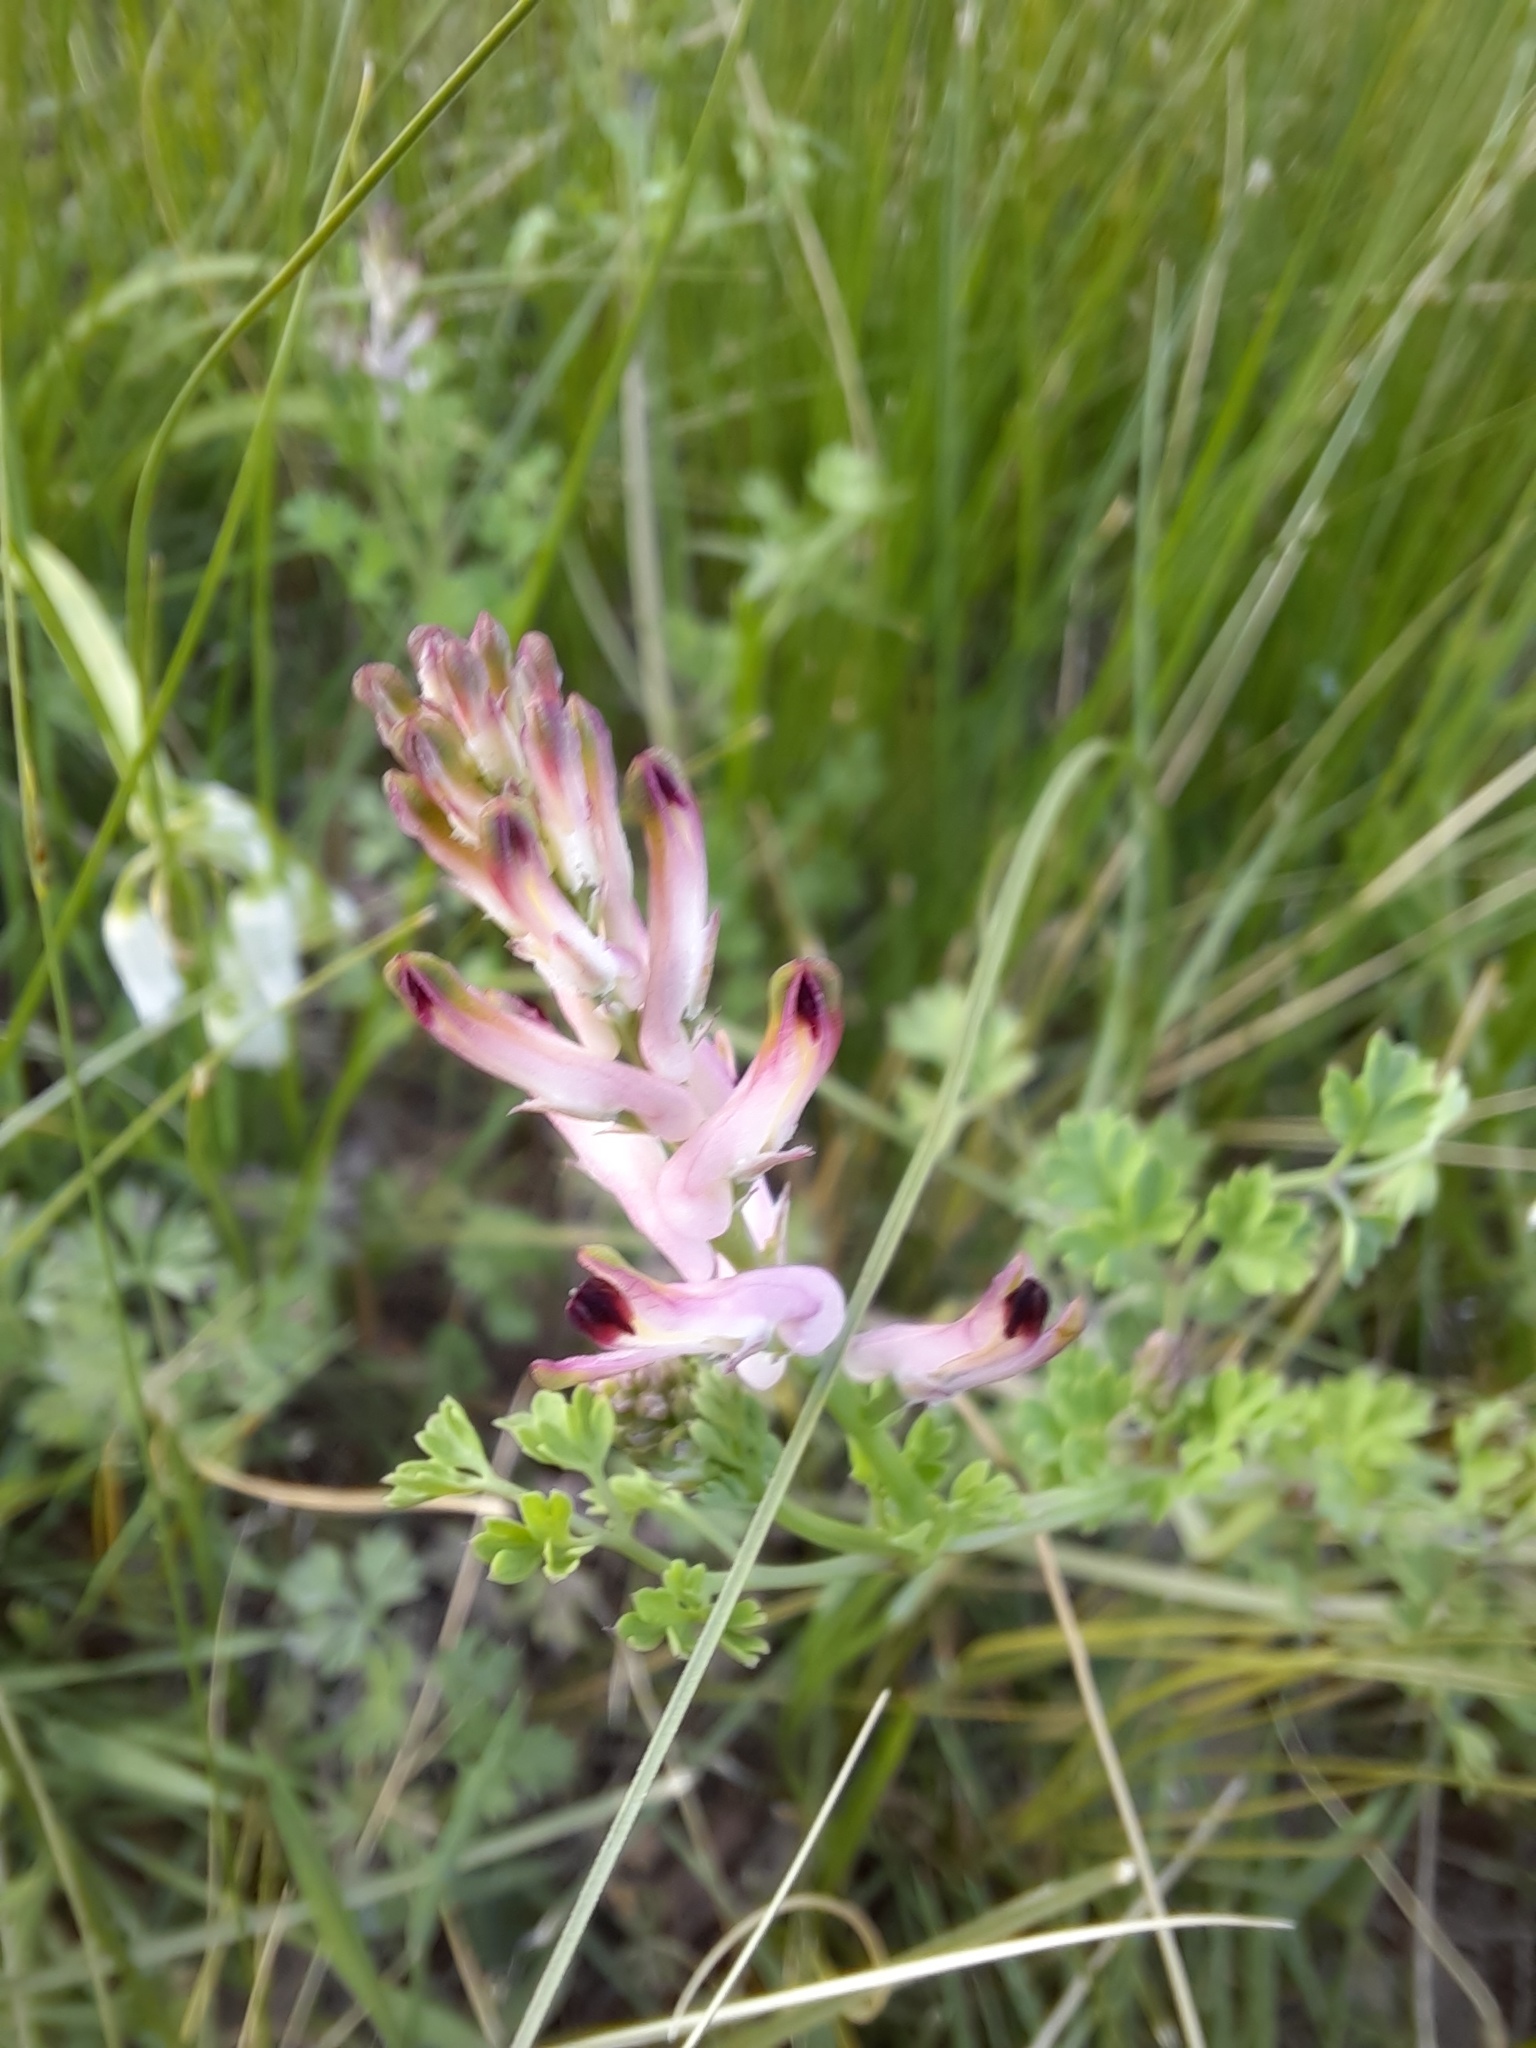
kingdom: Plantae
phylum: Tracheophyta
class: Magnoliopsida
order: Ranunculales
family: Papaveraceae
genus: Fumaria
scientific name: Fumaria bastardii
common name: Tall ramping-fumitory
